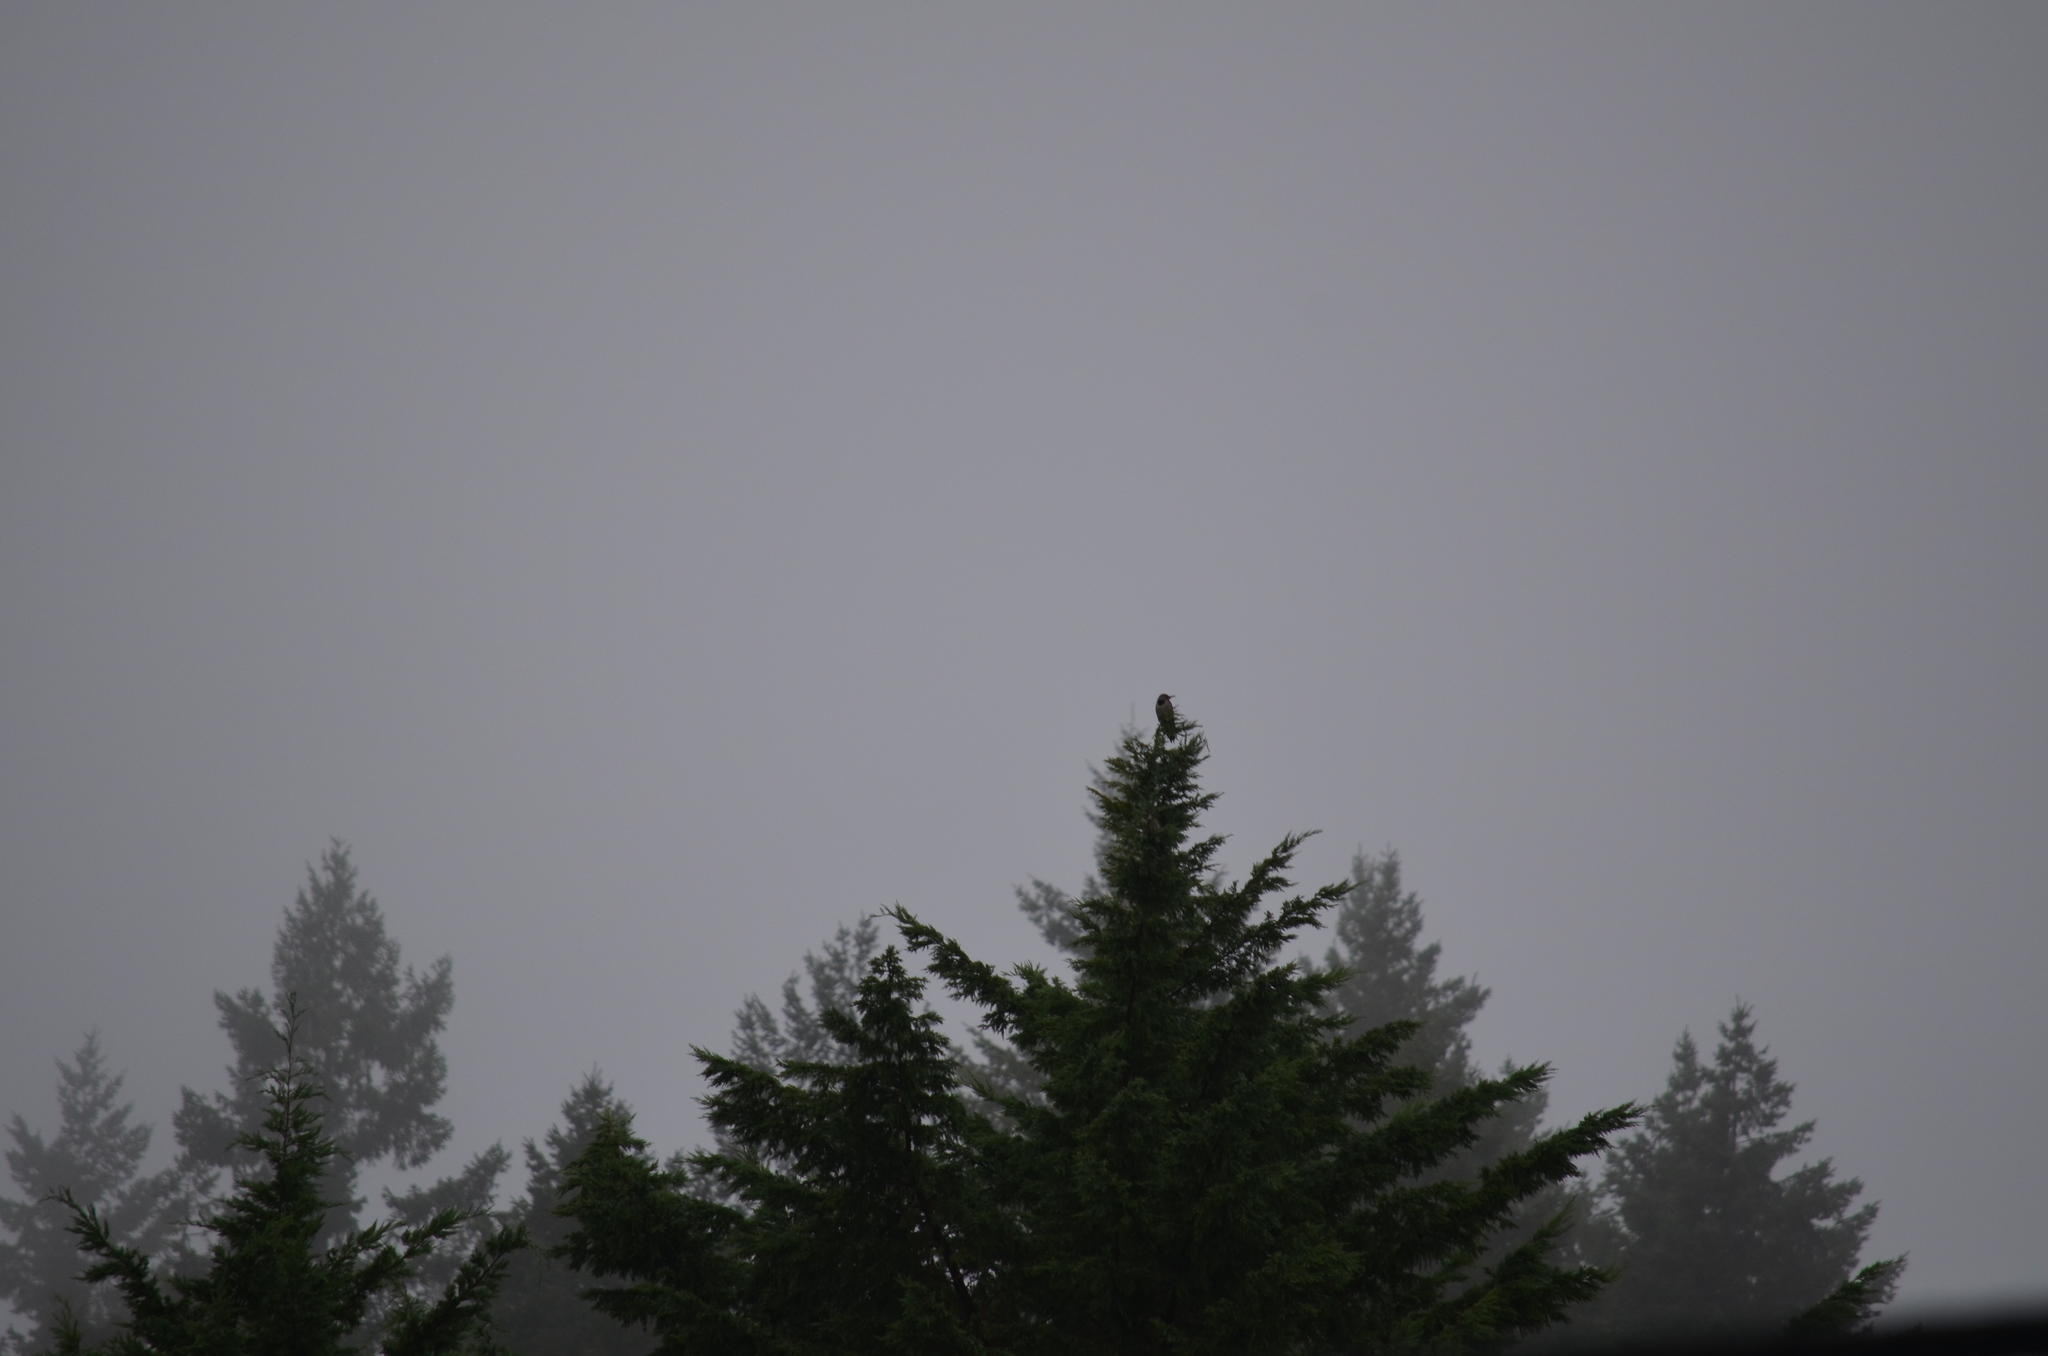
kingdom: Animalia
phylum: Chordata
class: Aves
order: Piciformes
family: Picidae
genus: Colaptes
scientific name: Colaptes auratus
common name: Northern flicker
